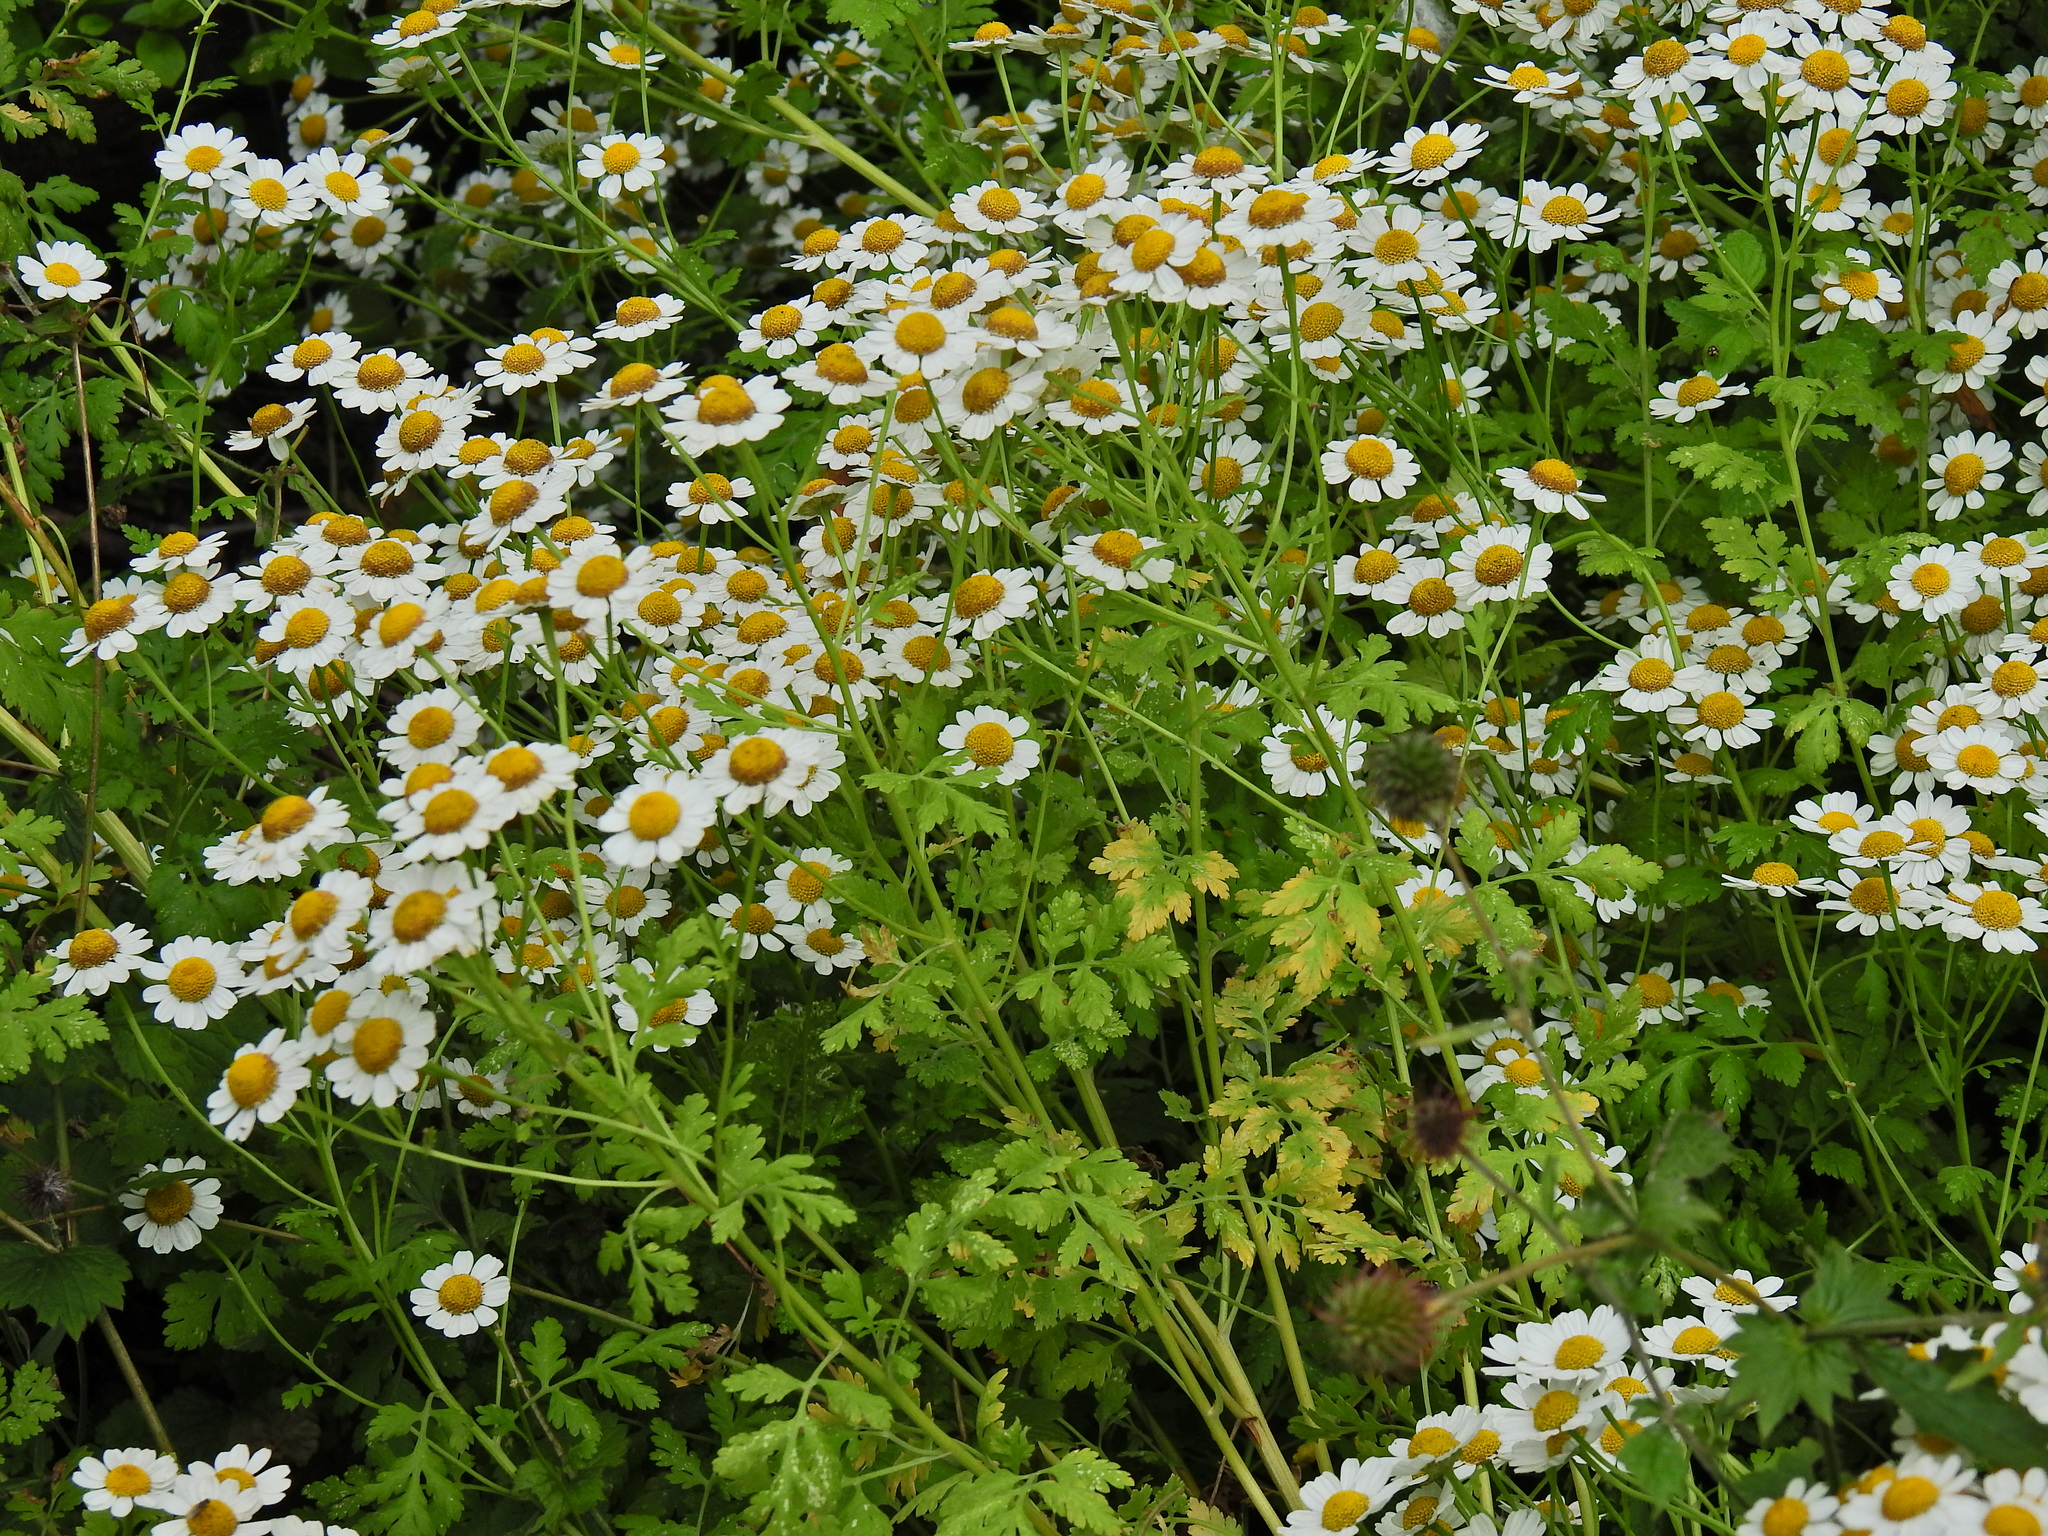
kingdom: Plantae
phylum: Tracheophyta
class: Magnoliopsida
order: Asterales
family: Asteraceae
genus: Tanacetum
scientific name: Tanacetum parthenium
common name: Feverfew
